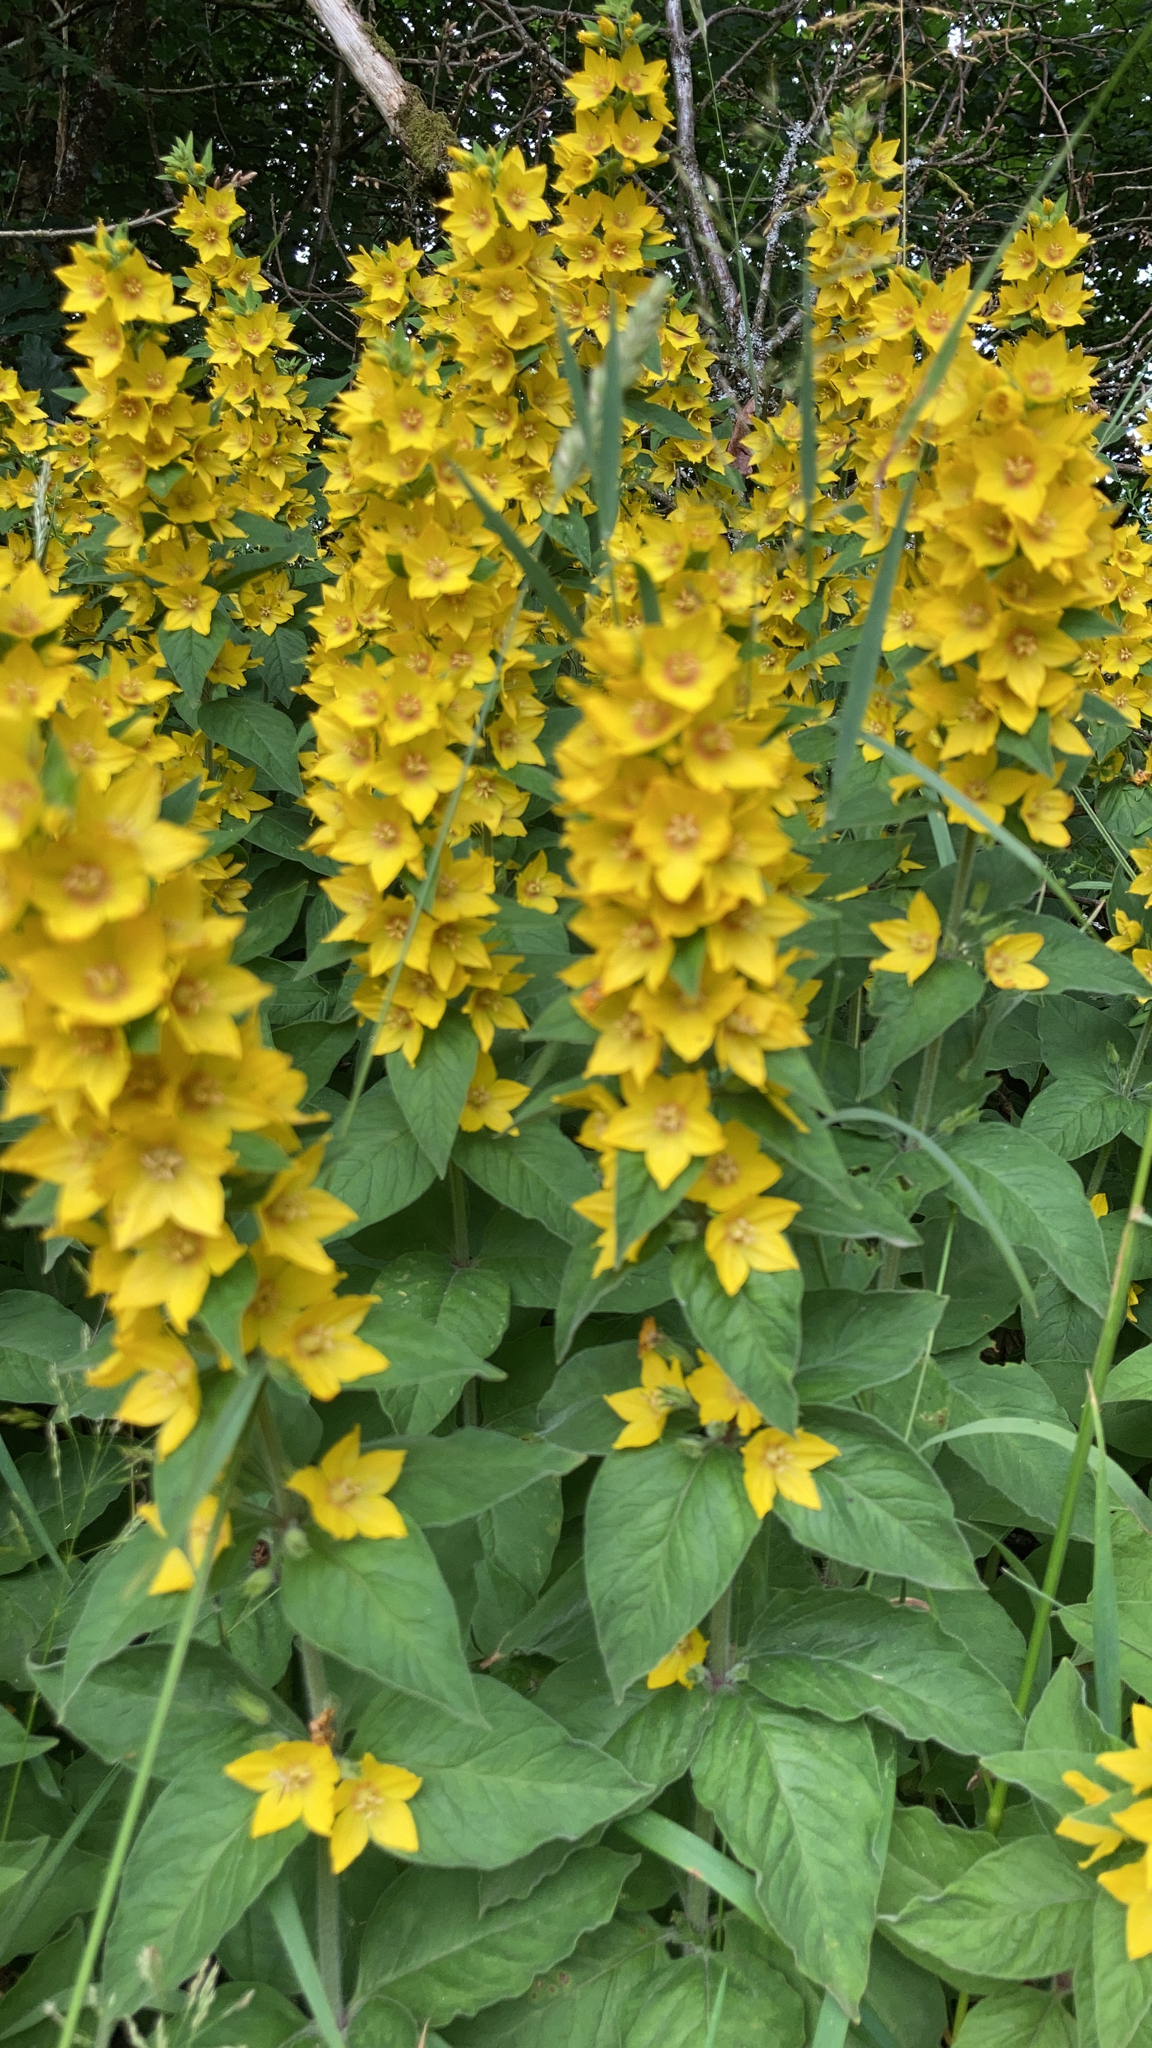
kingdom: Plantae
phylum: Tracheophyta
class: Magnoliopsida
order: Ericales
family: Primulaceae
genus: Lysimachia
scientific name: Lysimachia punctata
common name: Dotted loosestrife
